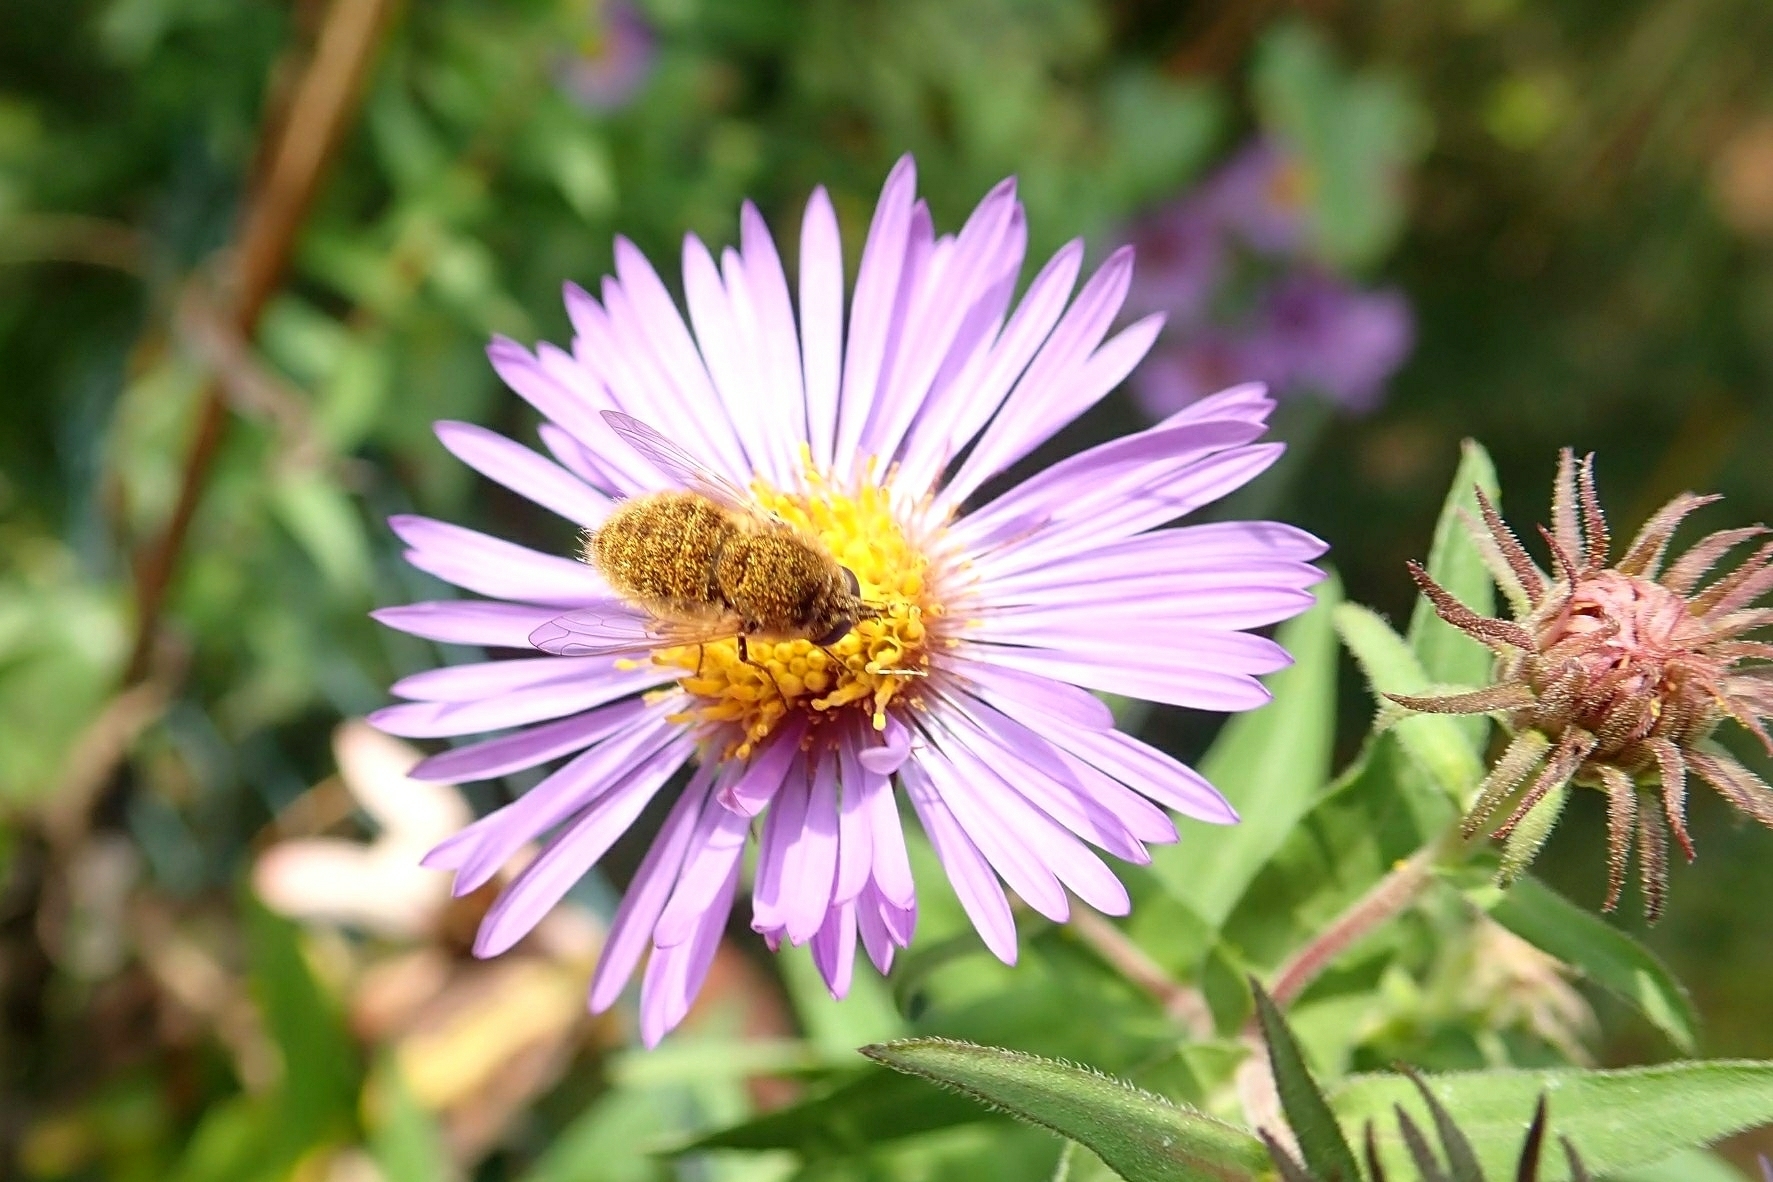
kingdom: Animalia
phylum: Arthropoda
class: Insecta
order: Diptera
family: Bombyliidae
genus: Sparnopolius
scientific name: Sparnopolius confusus
